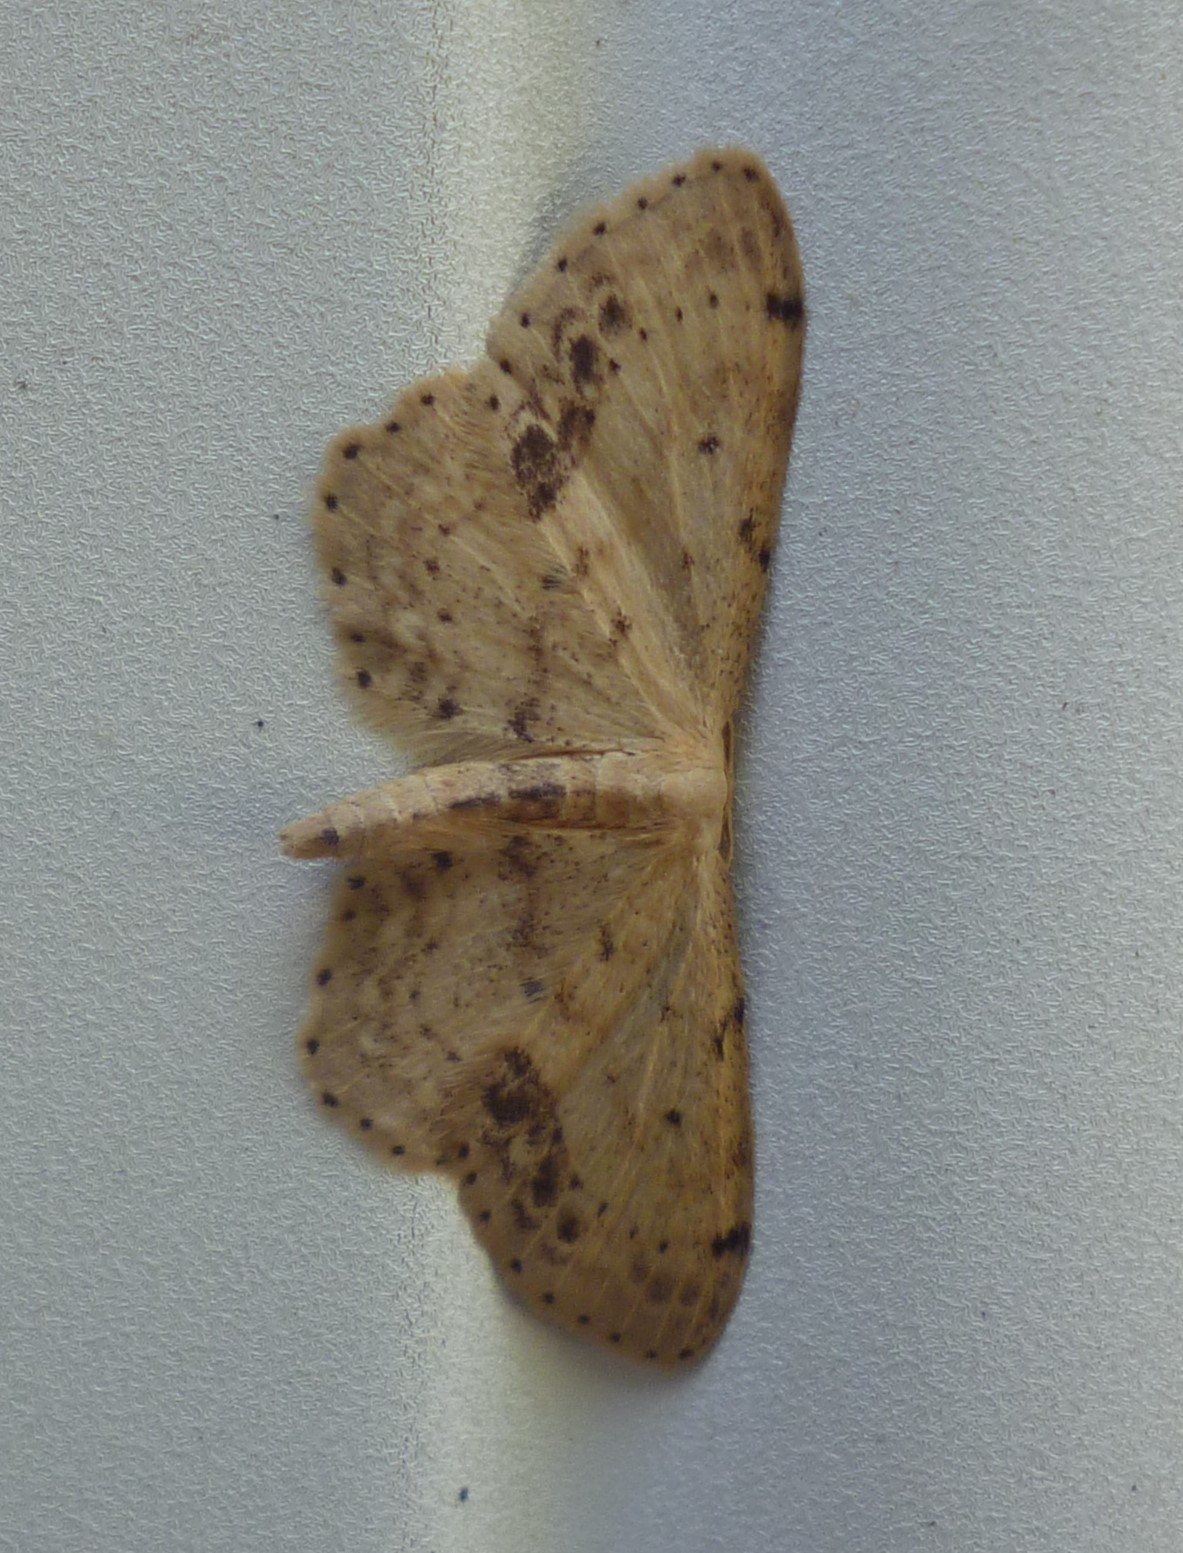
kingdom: Animalia
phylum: Arthropoda
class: Insecta
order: Lepidoptera
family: Geometridae
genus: Idaea
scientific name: Idaea dimidiata
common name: Single-dotted wave
